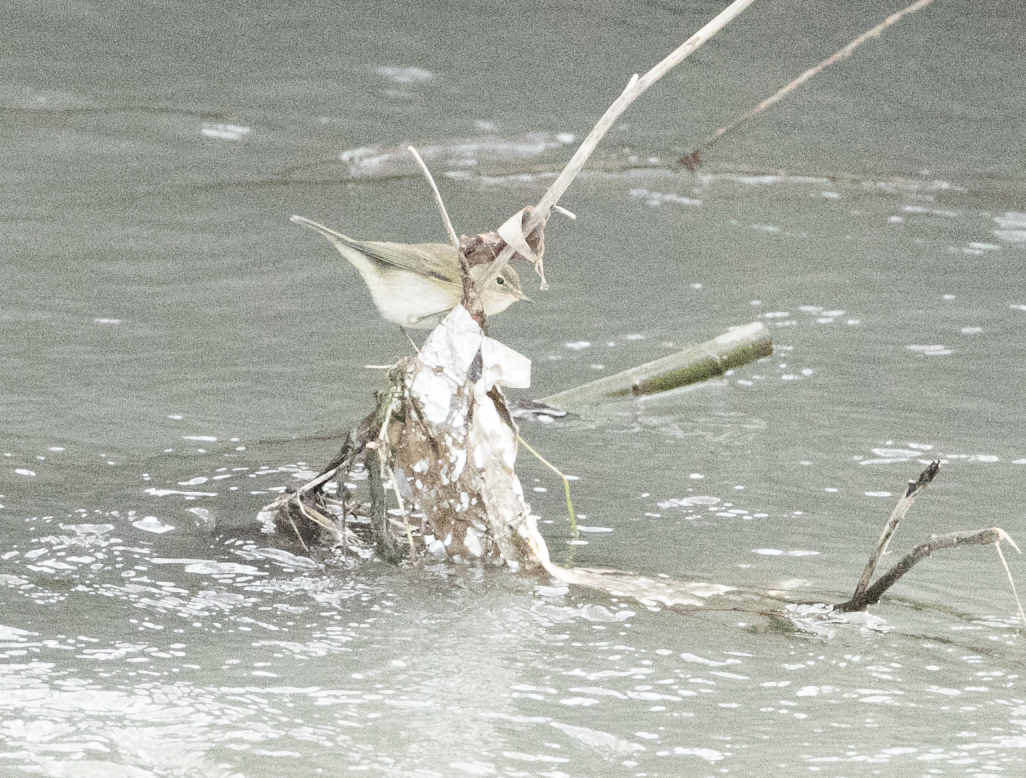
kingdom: Animalia
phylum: Chordata
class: Aves
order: Passeriformes
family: Phylloscopidae
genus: Phylloscopus
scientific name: Phylloscopus collybita
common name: Common chiffchaff
